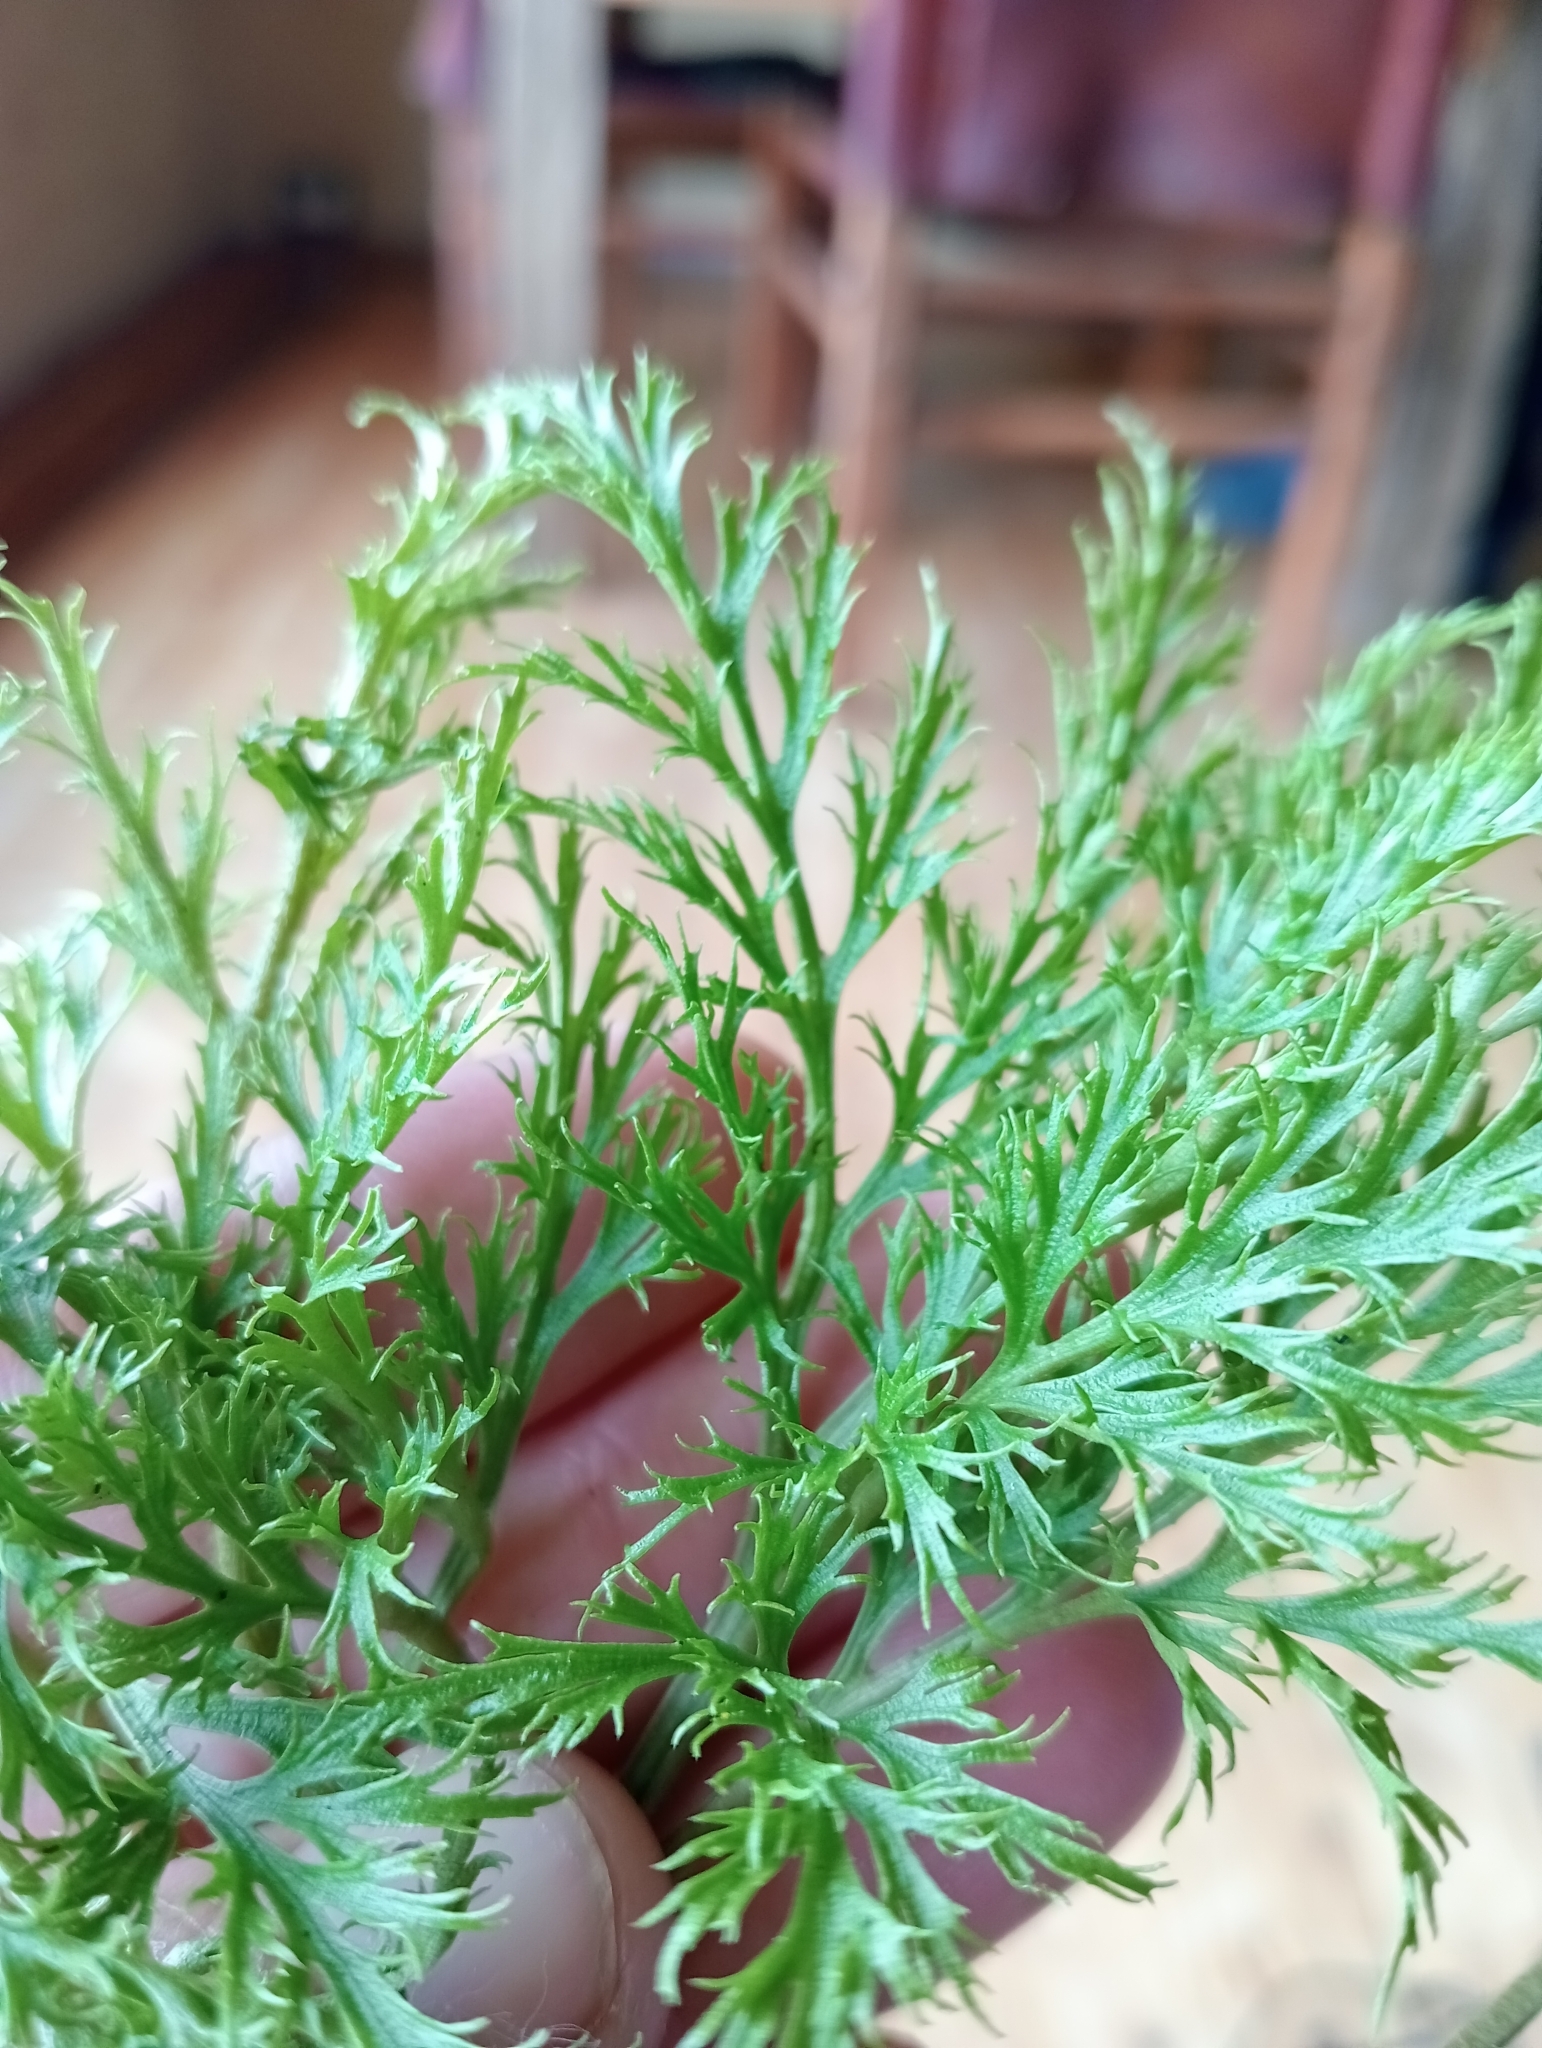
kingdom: Plantae
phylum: Tracheophyta
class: Polypodiopsida
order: Ophioglossales
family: Ophioglossaceae
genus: Sceptridium
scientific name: Sceptridium biforme
